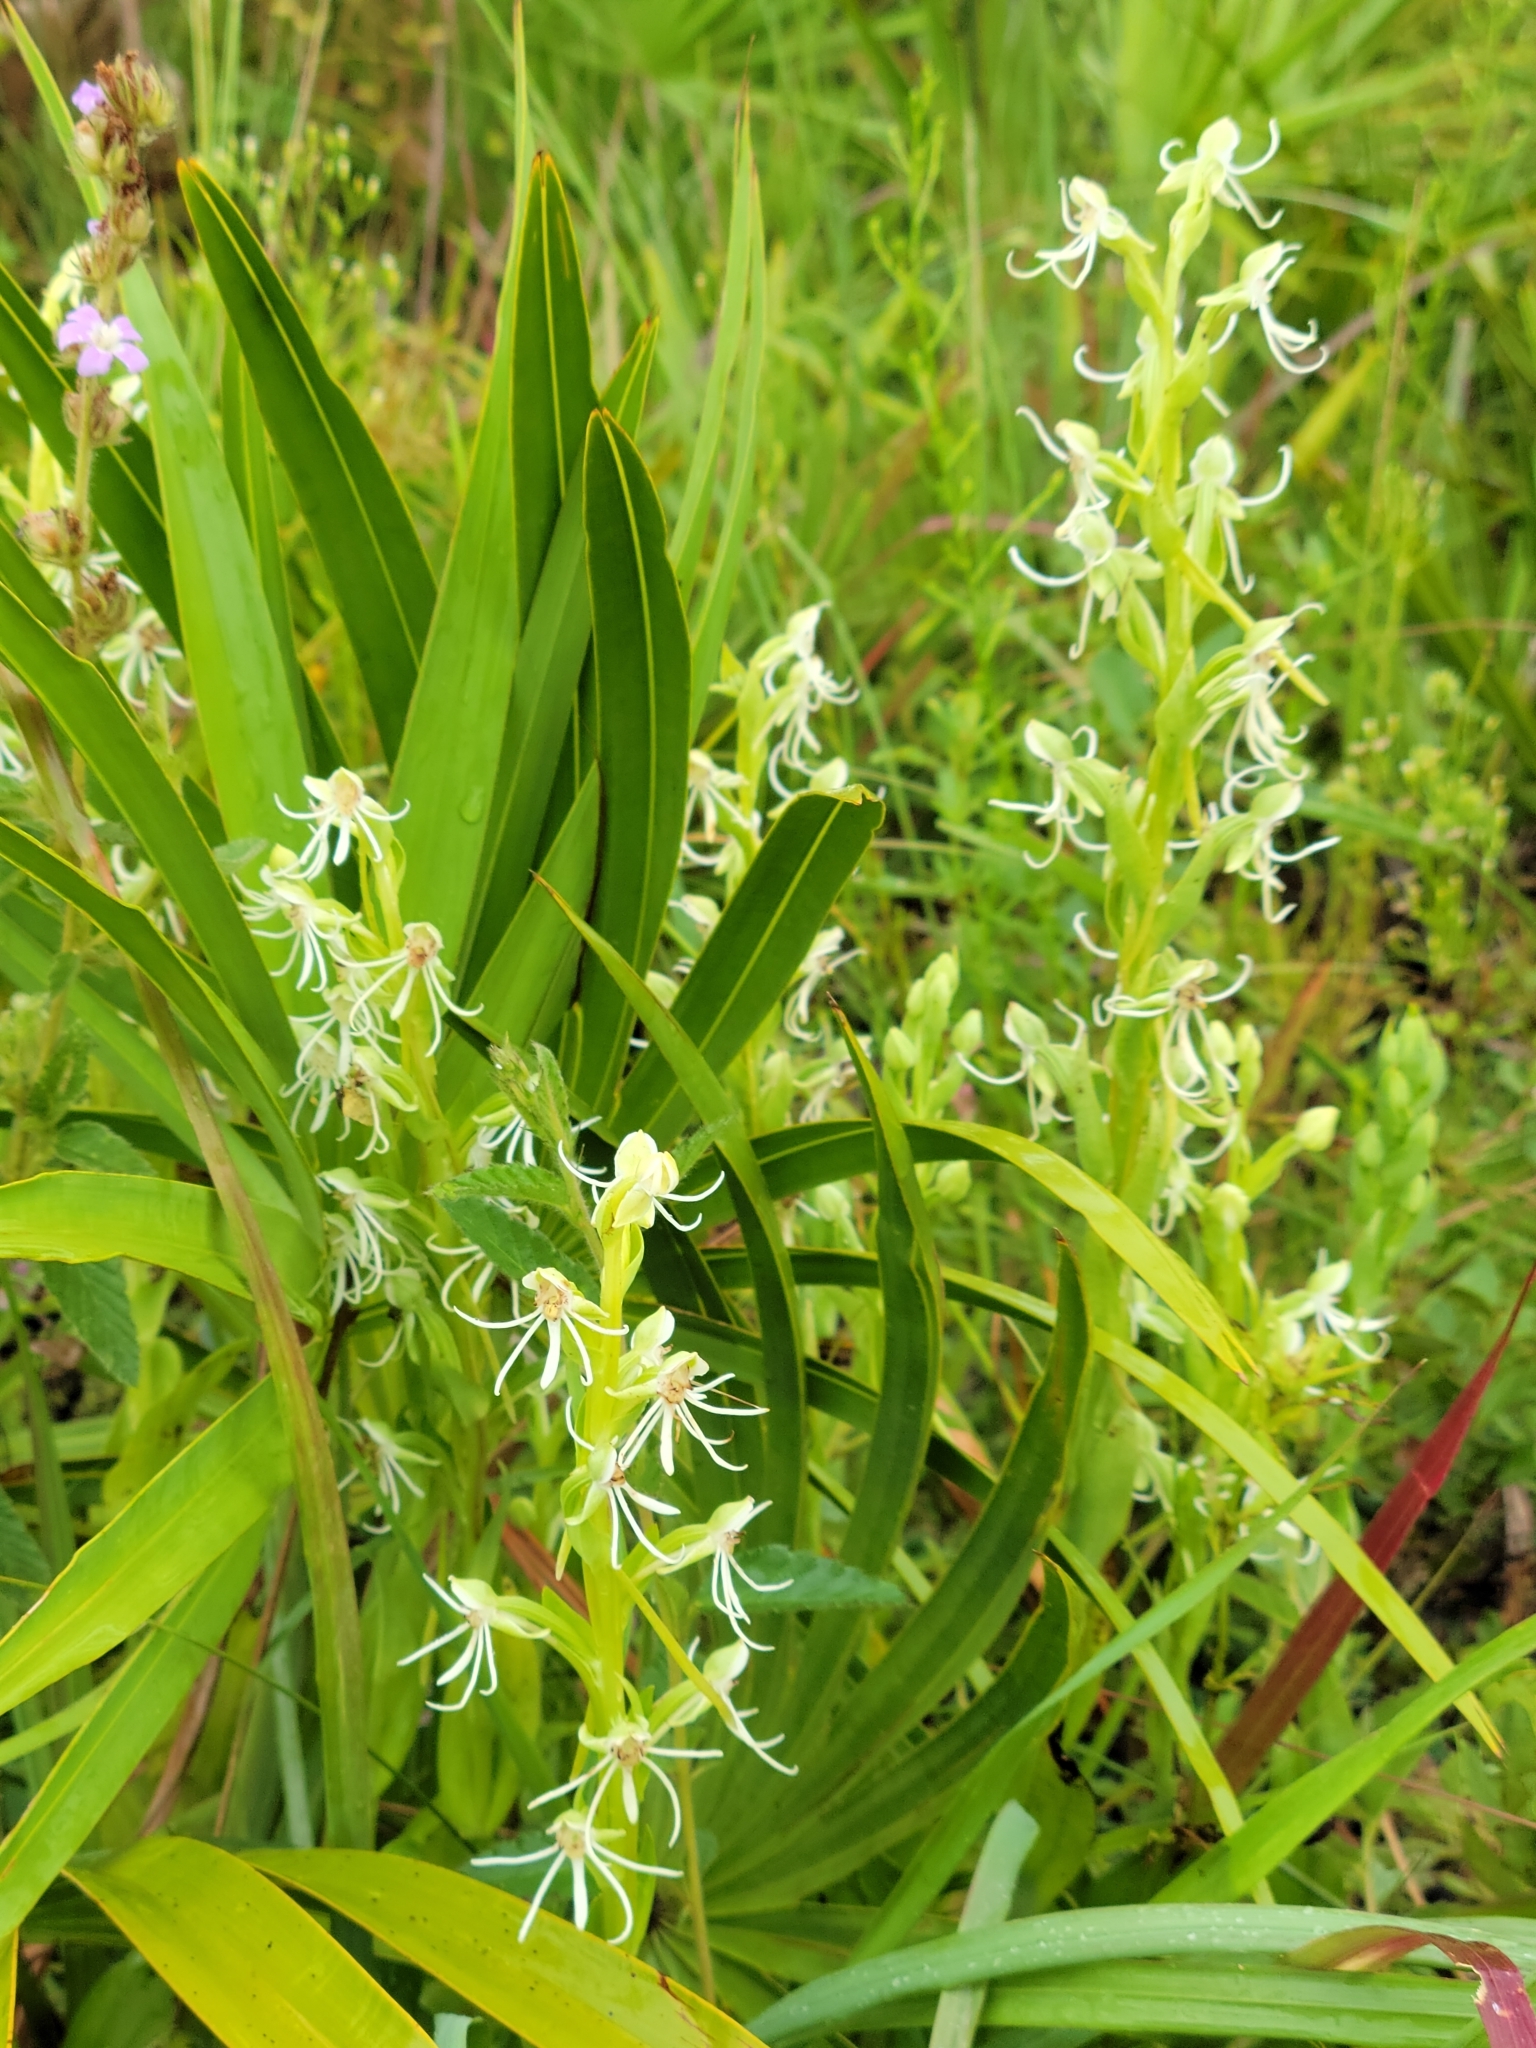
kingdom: Plantae
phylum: Tracheophyta
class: Liliopsida
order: Asparagales
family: Orchidaceae
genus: Habenaria
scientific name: Habenaria quinqueseta
